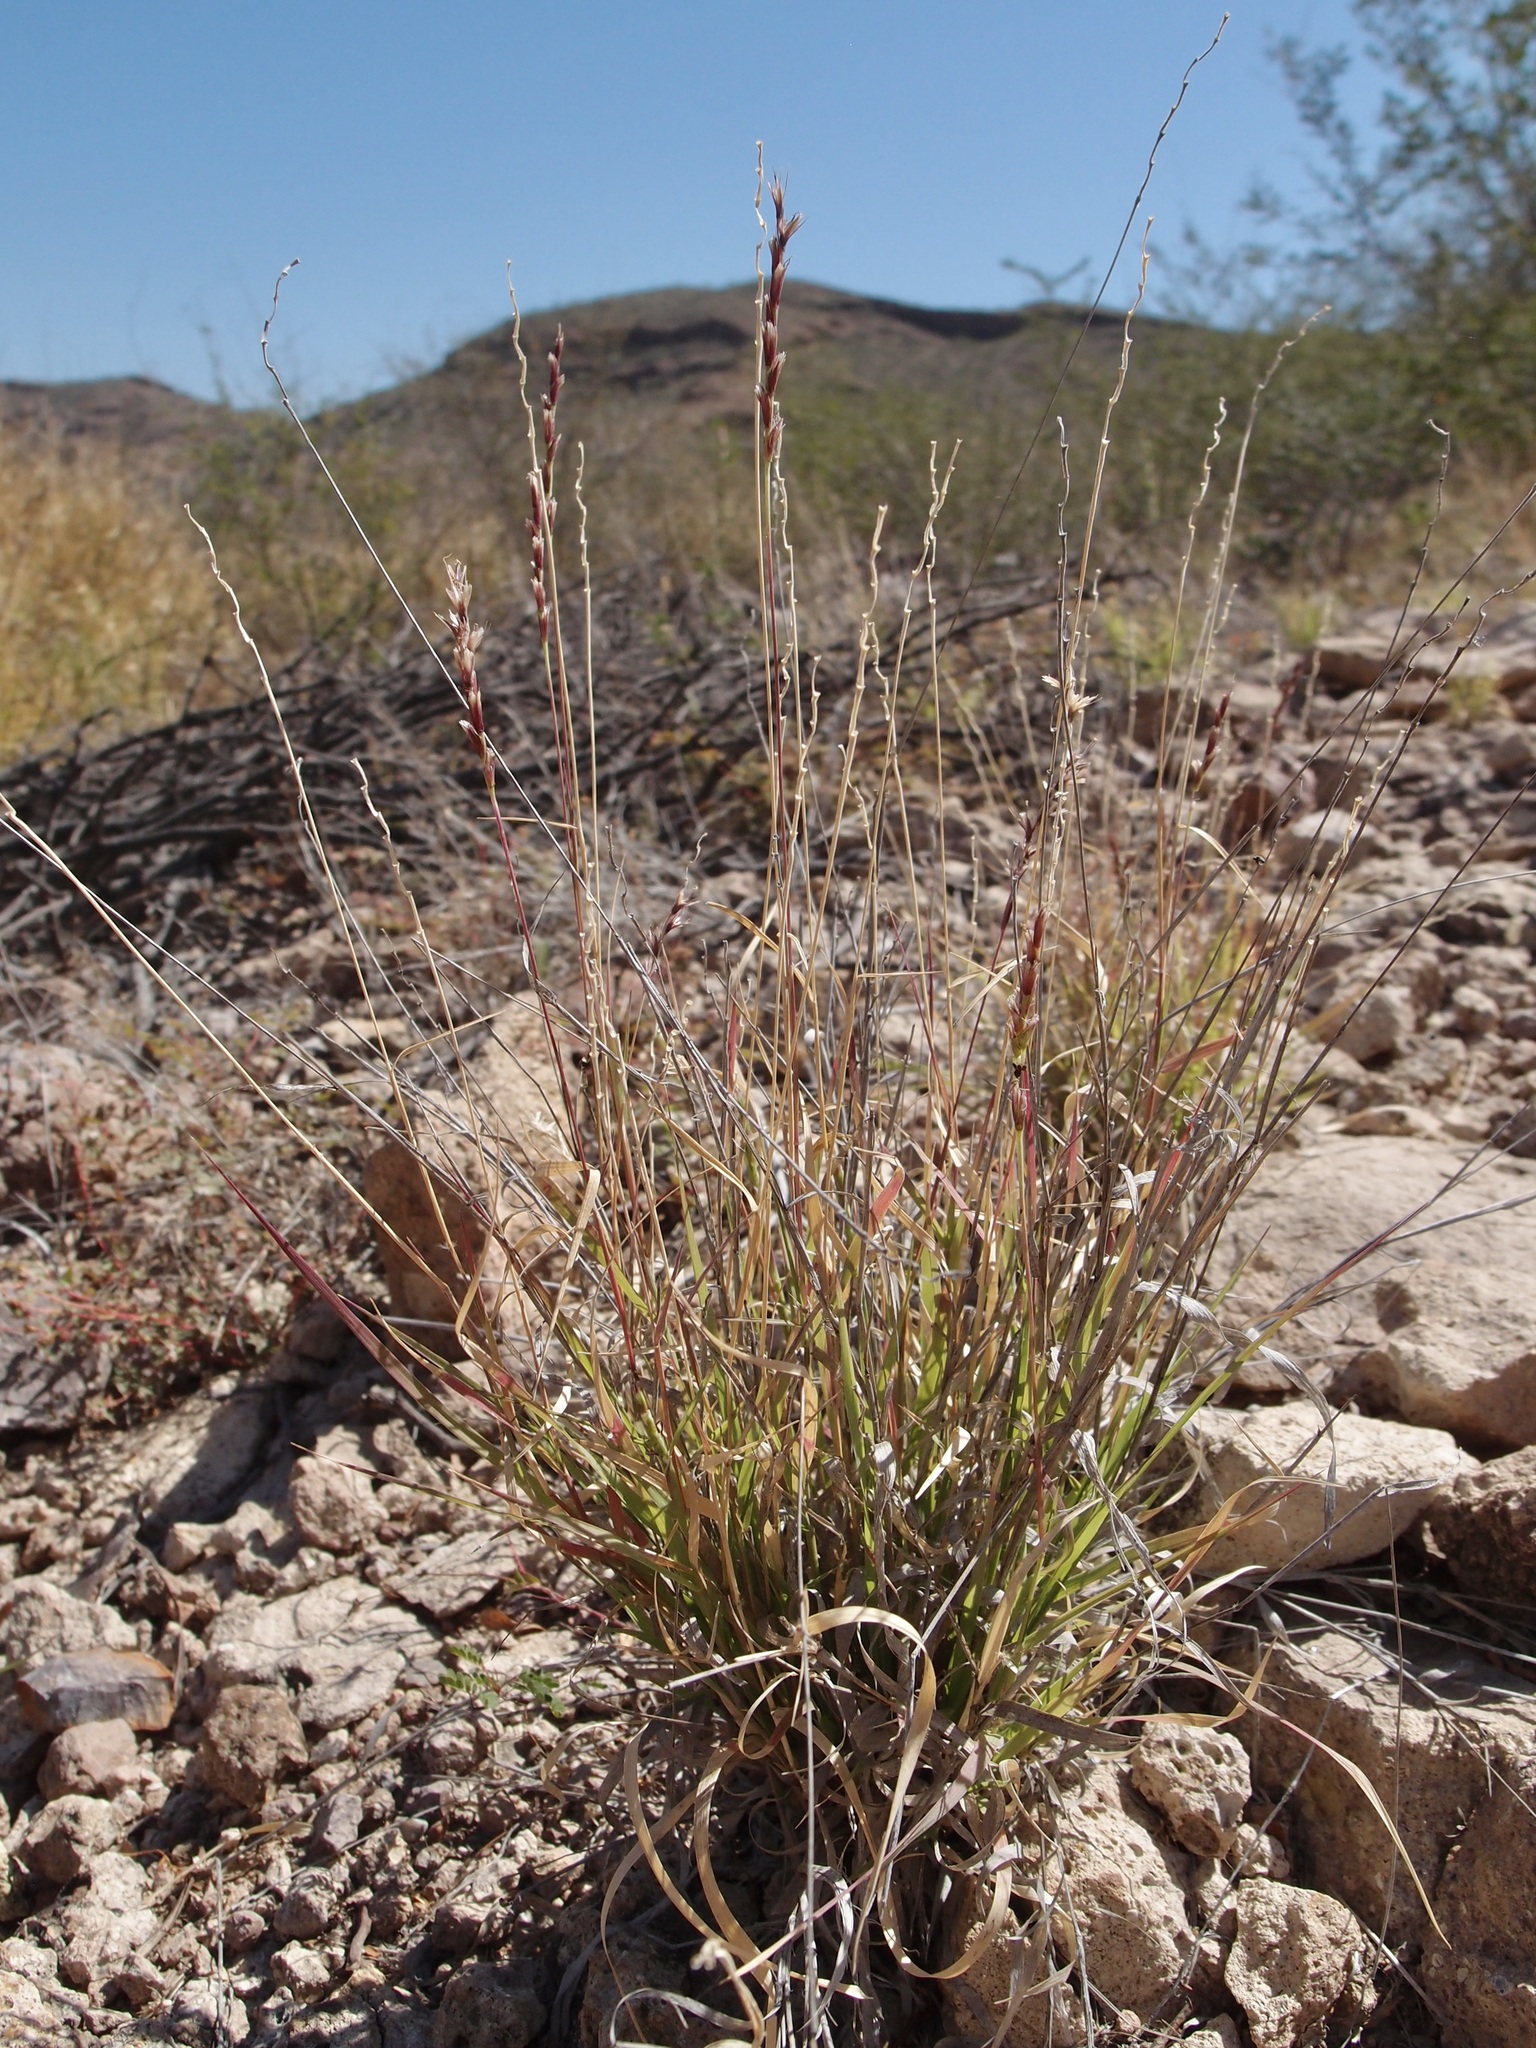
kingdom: Plantae
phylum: Tracheophyta
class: Liliopsida
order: Poales
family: Poaceae
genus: Hilaria
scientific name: Hilaria belangeri
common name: Curly-mesquite
